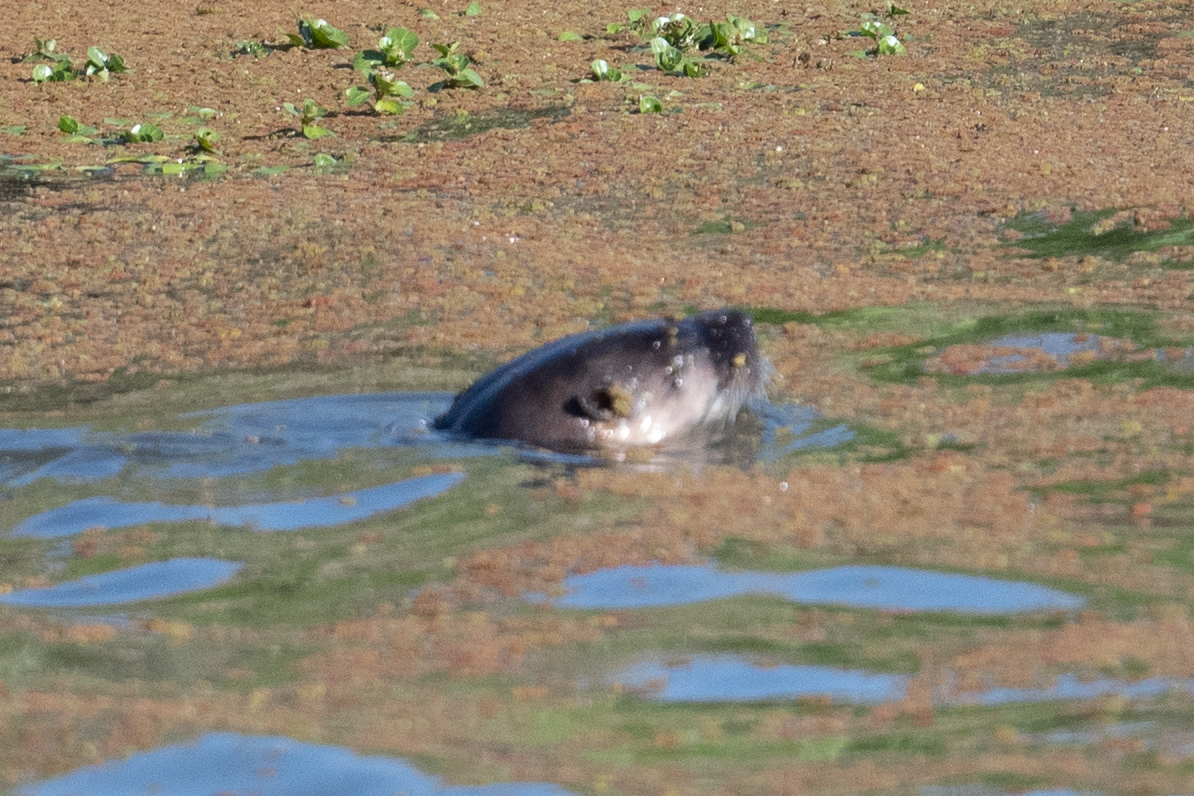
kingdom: Animalia
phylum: Chordata
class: Mammalia
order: Carnivora
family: Mustelidae
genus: Lontra
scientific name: Lontra canadensis
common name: North american river otter
